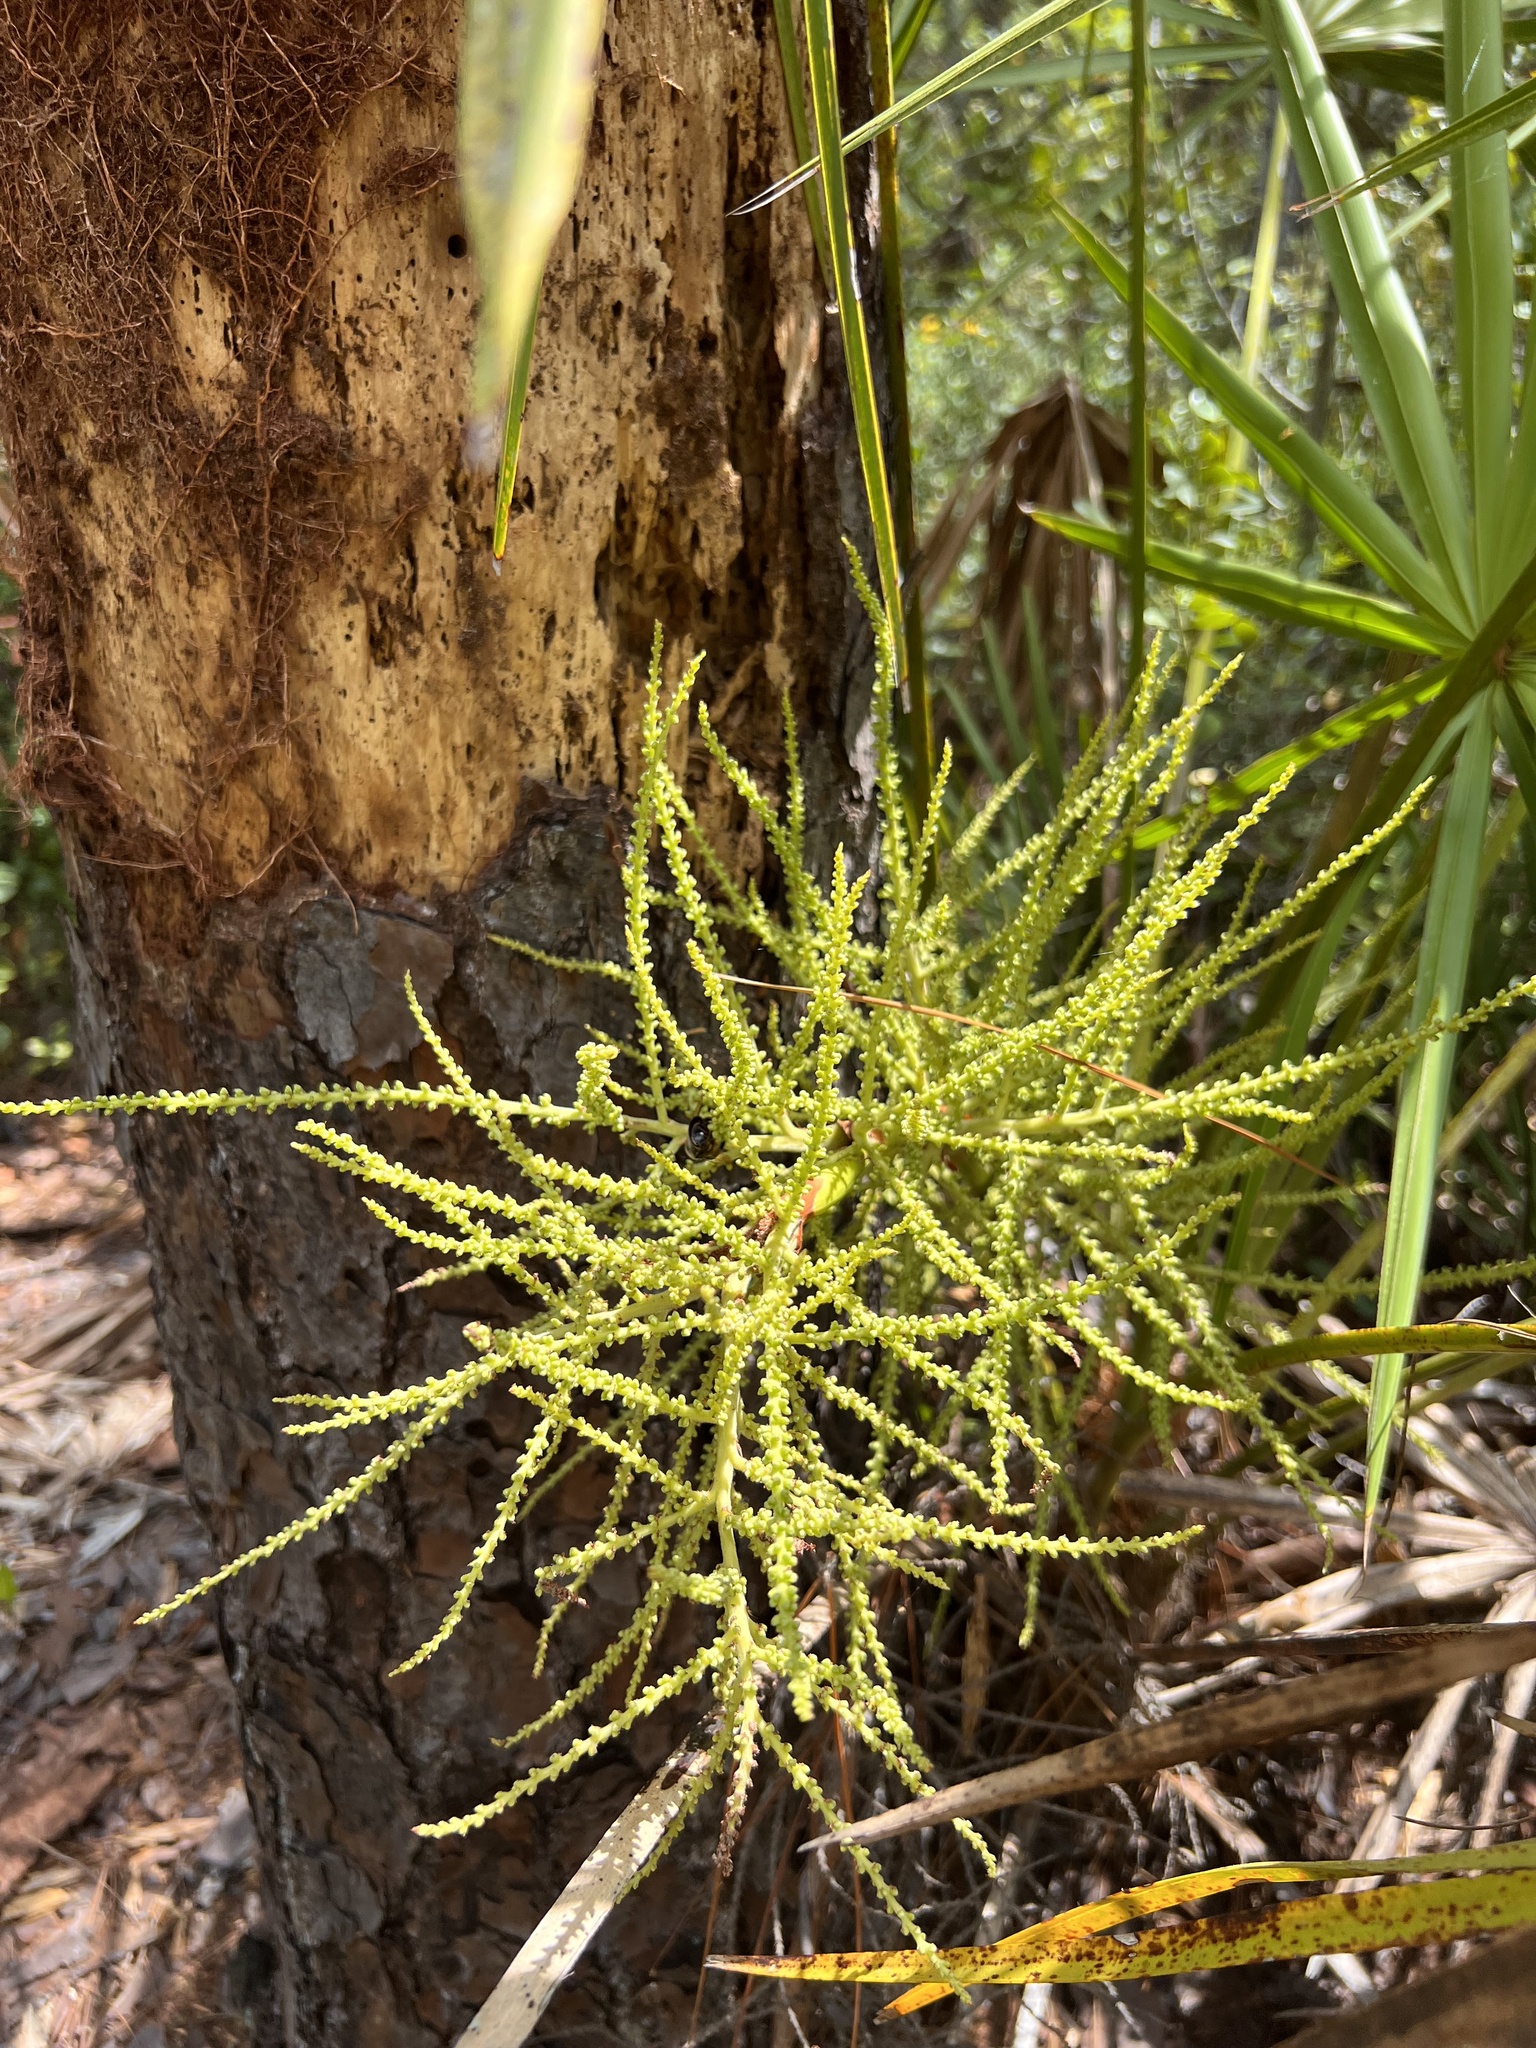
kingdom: Plantae
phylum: Tracheophyta
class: Liliopsida
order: Arecales
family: Arecaceae
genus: Serenoa
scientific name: Serenoa repens
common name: Saw-palmetto
